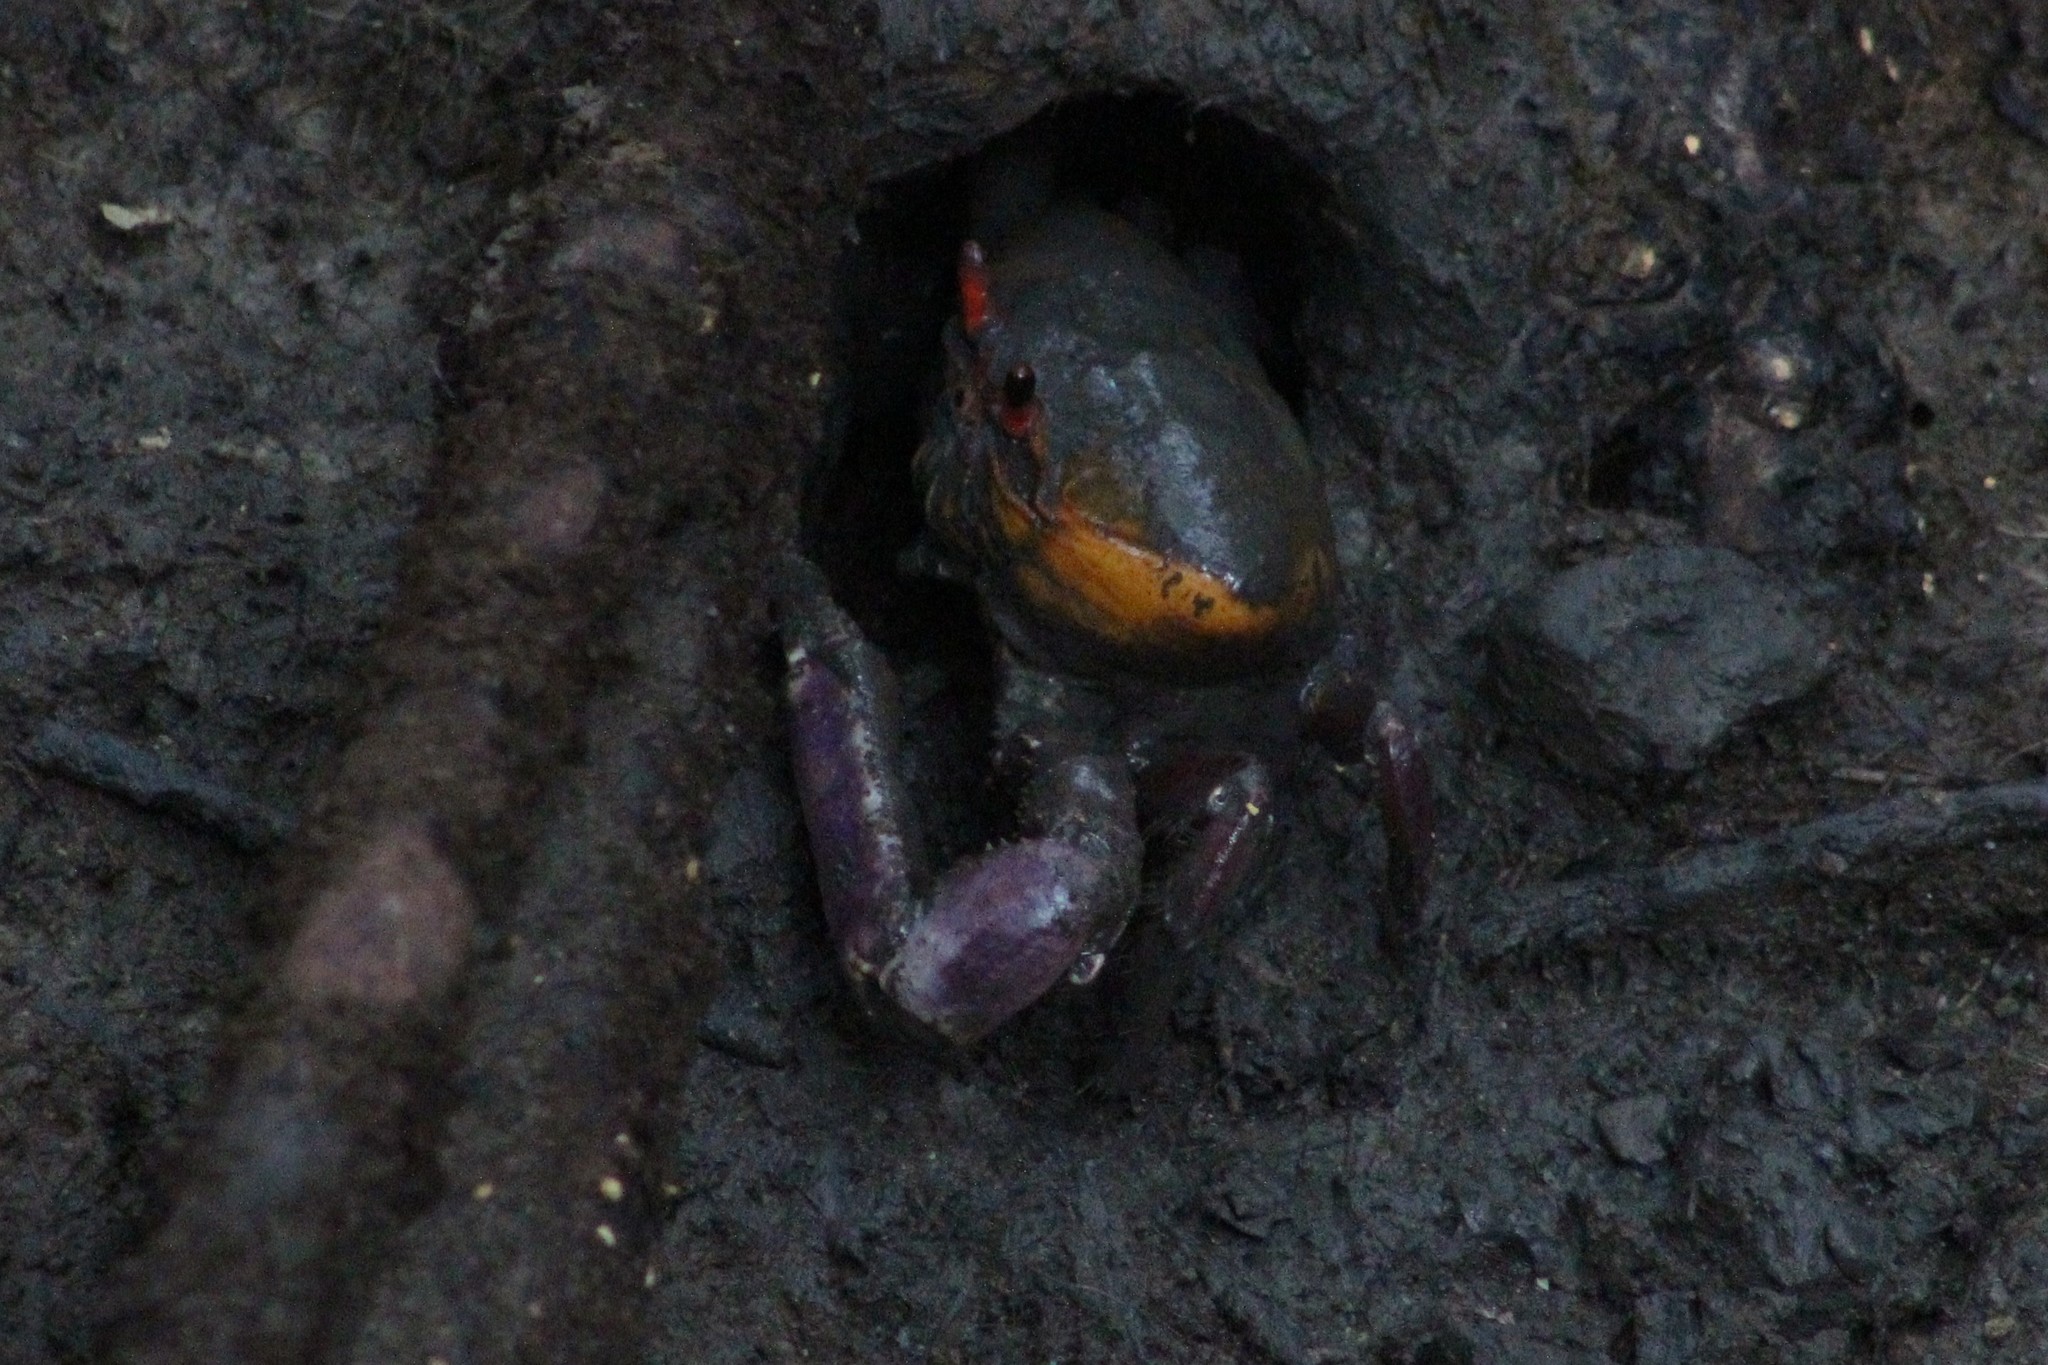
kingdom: Animalia
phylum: Arthropoda
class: Malacostraca
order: Decapoda
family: Ocypodidae
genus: Ucides
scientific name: Ucides occidentalis
